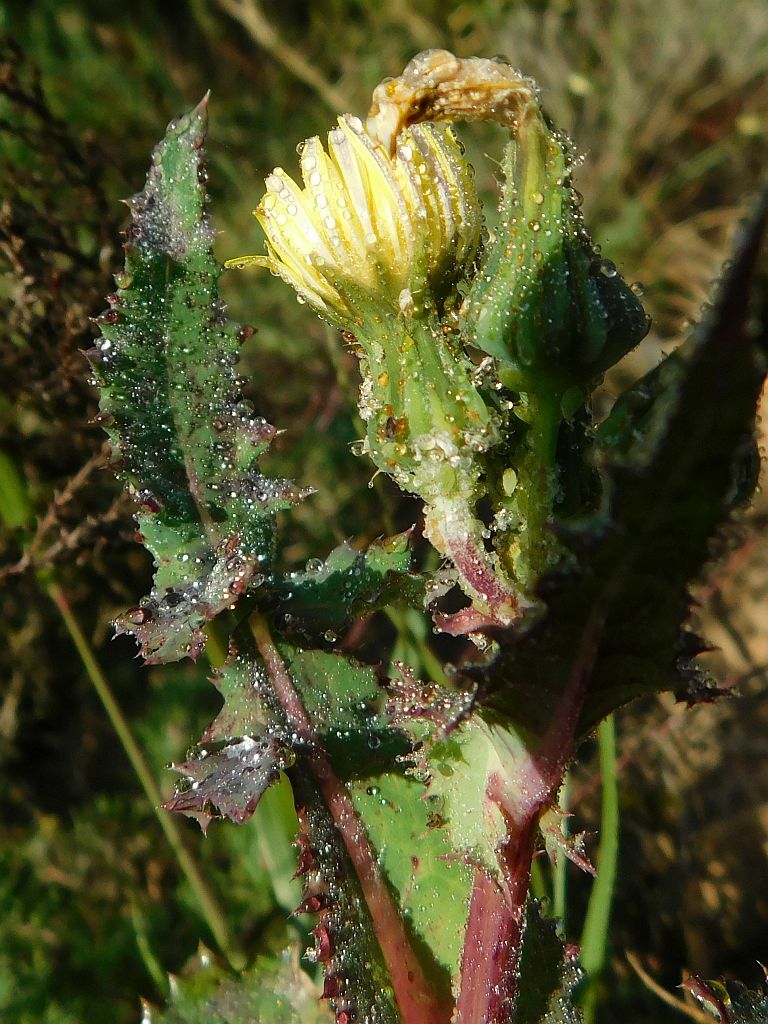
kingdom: Plantae
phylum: Tracheophyta
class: Magnoliopsida
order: Asterales
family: Asteraceae
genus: Sonchus
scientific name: Sonchus oleraceus
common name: Common sowthistle
